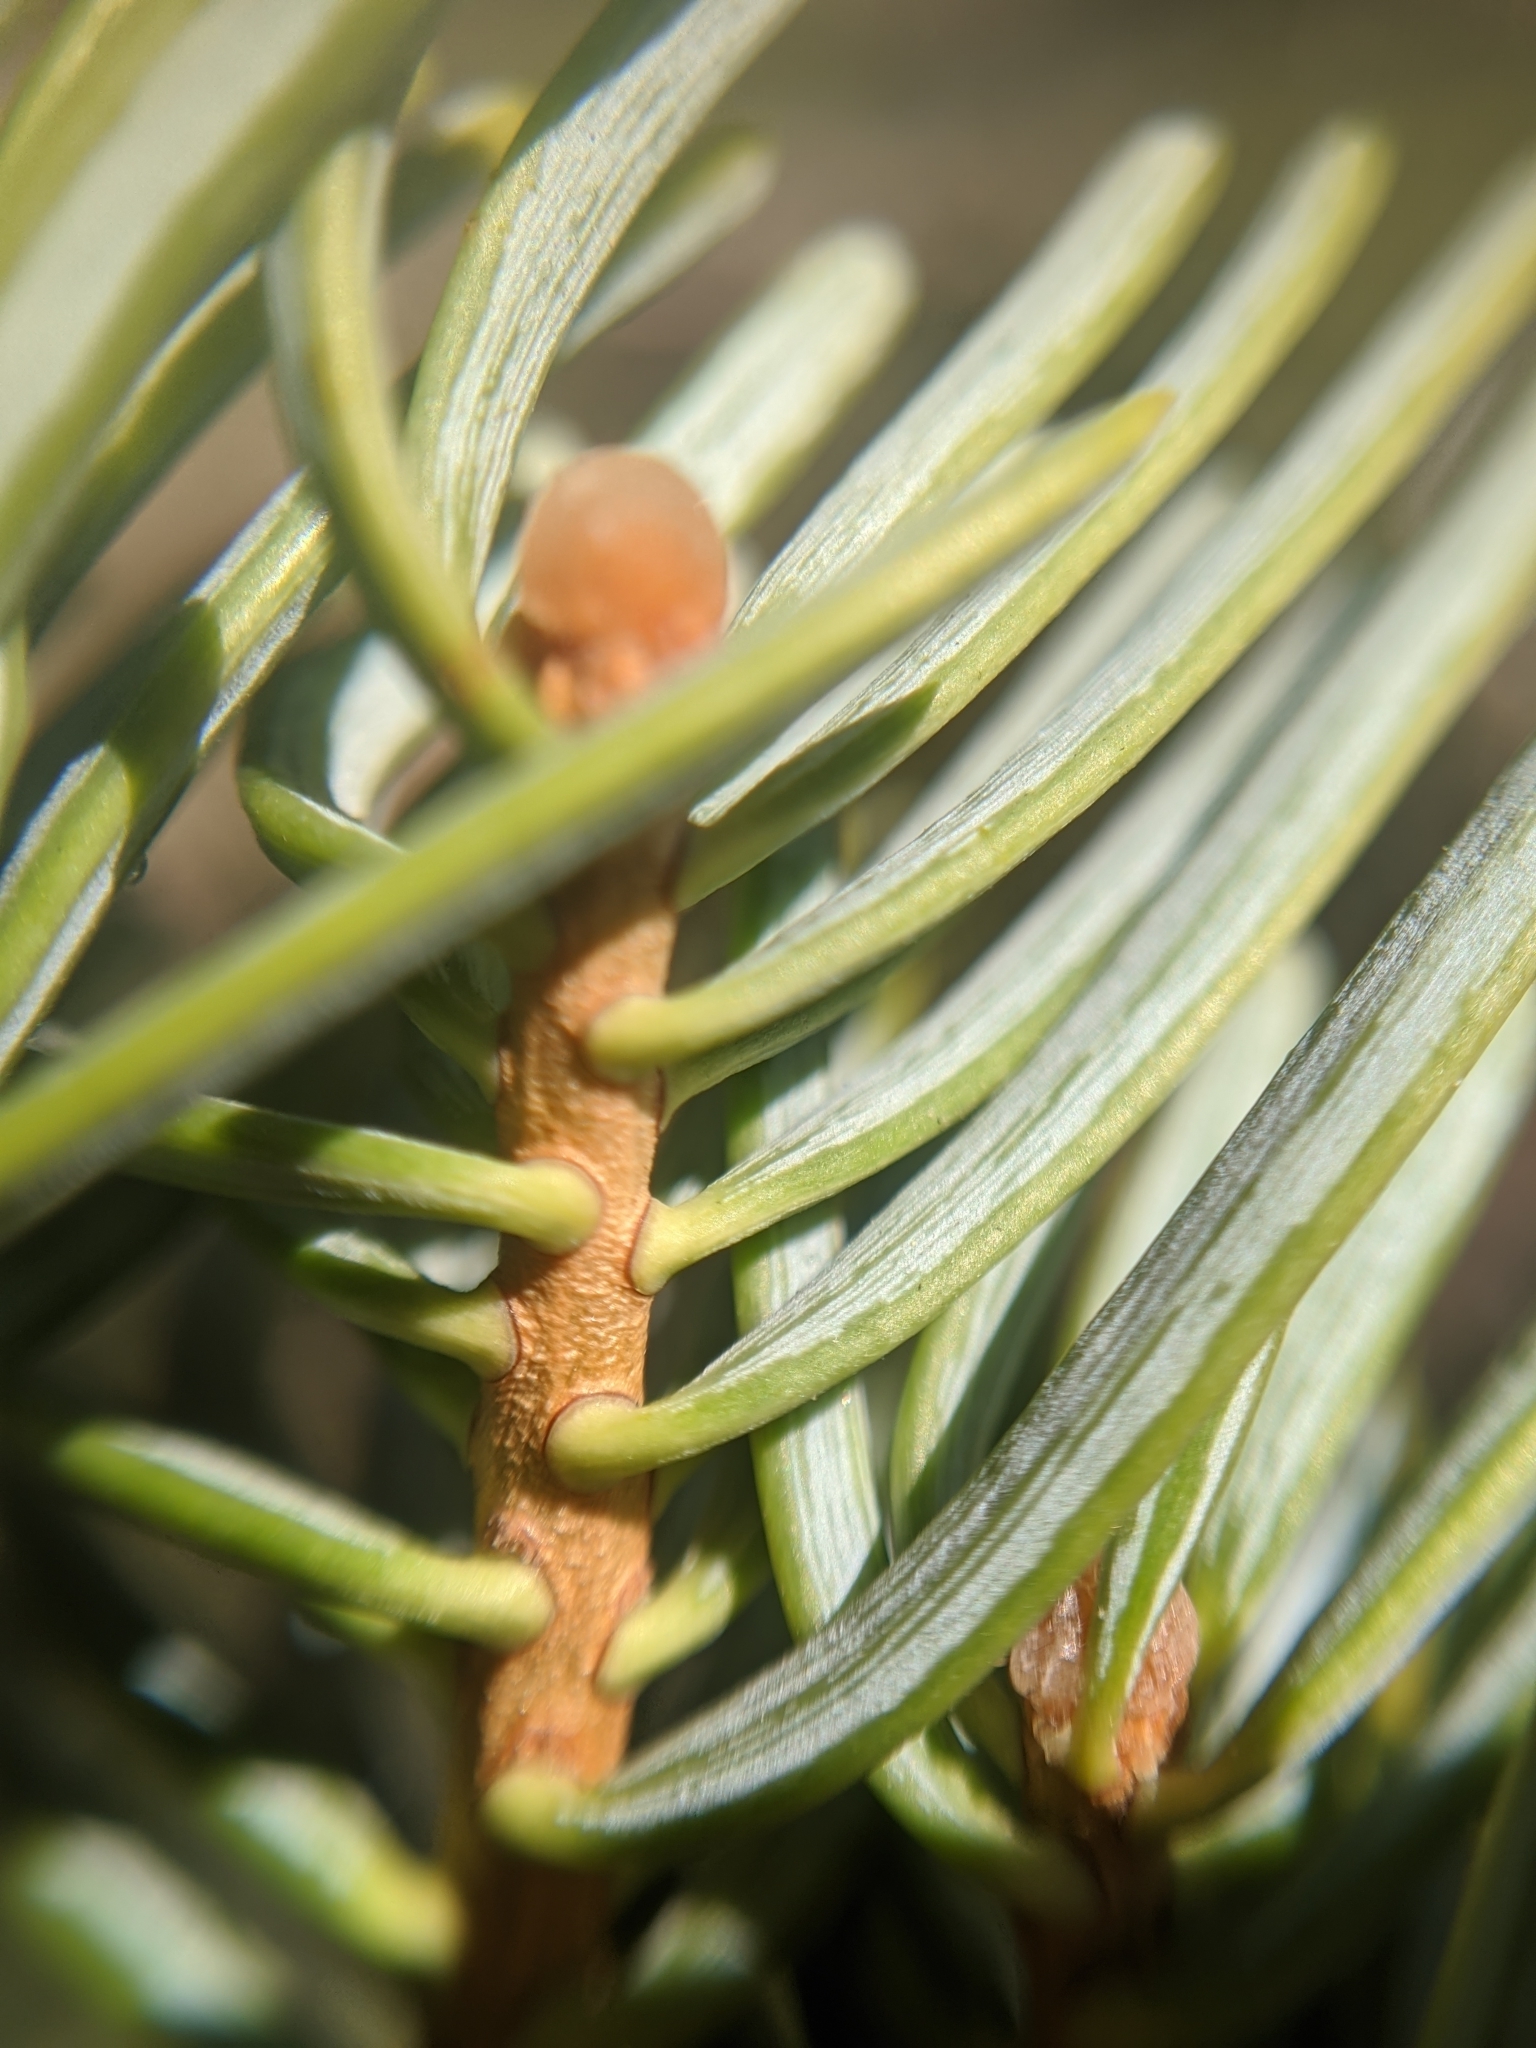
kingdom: Plantae
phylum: Tracheophyta
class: Pinopsida
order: Pinales
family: Pinaceae
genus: Abies
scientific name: Abies concolor
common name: Colorado fir
